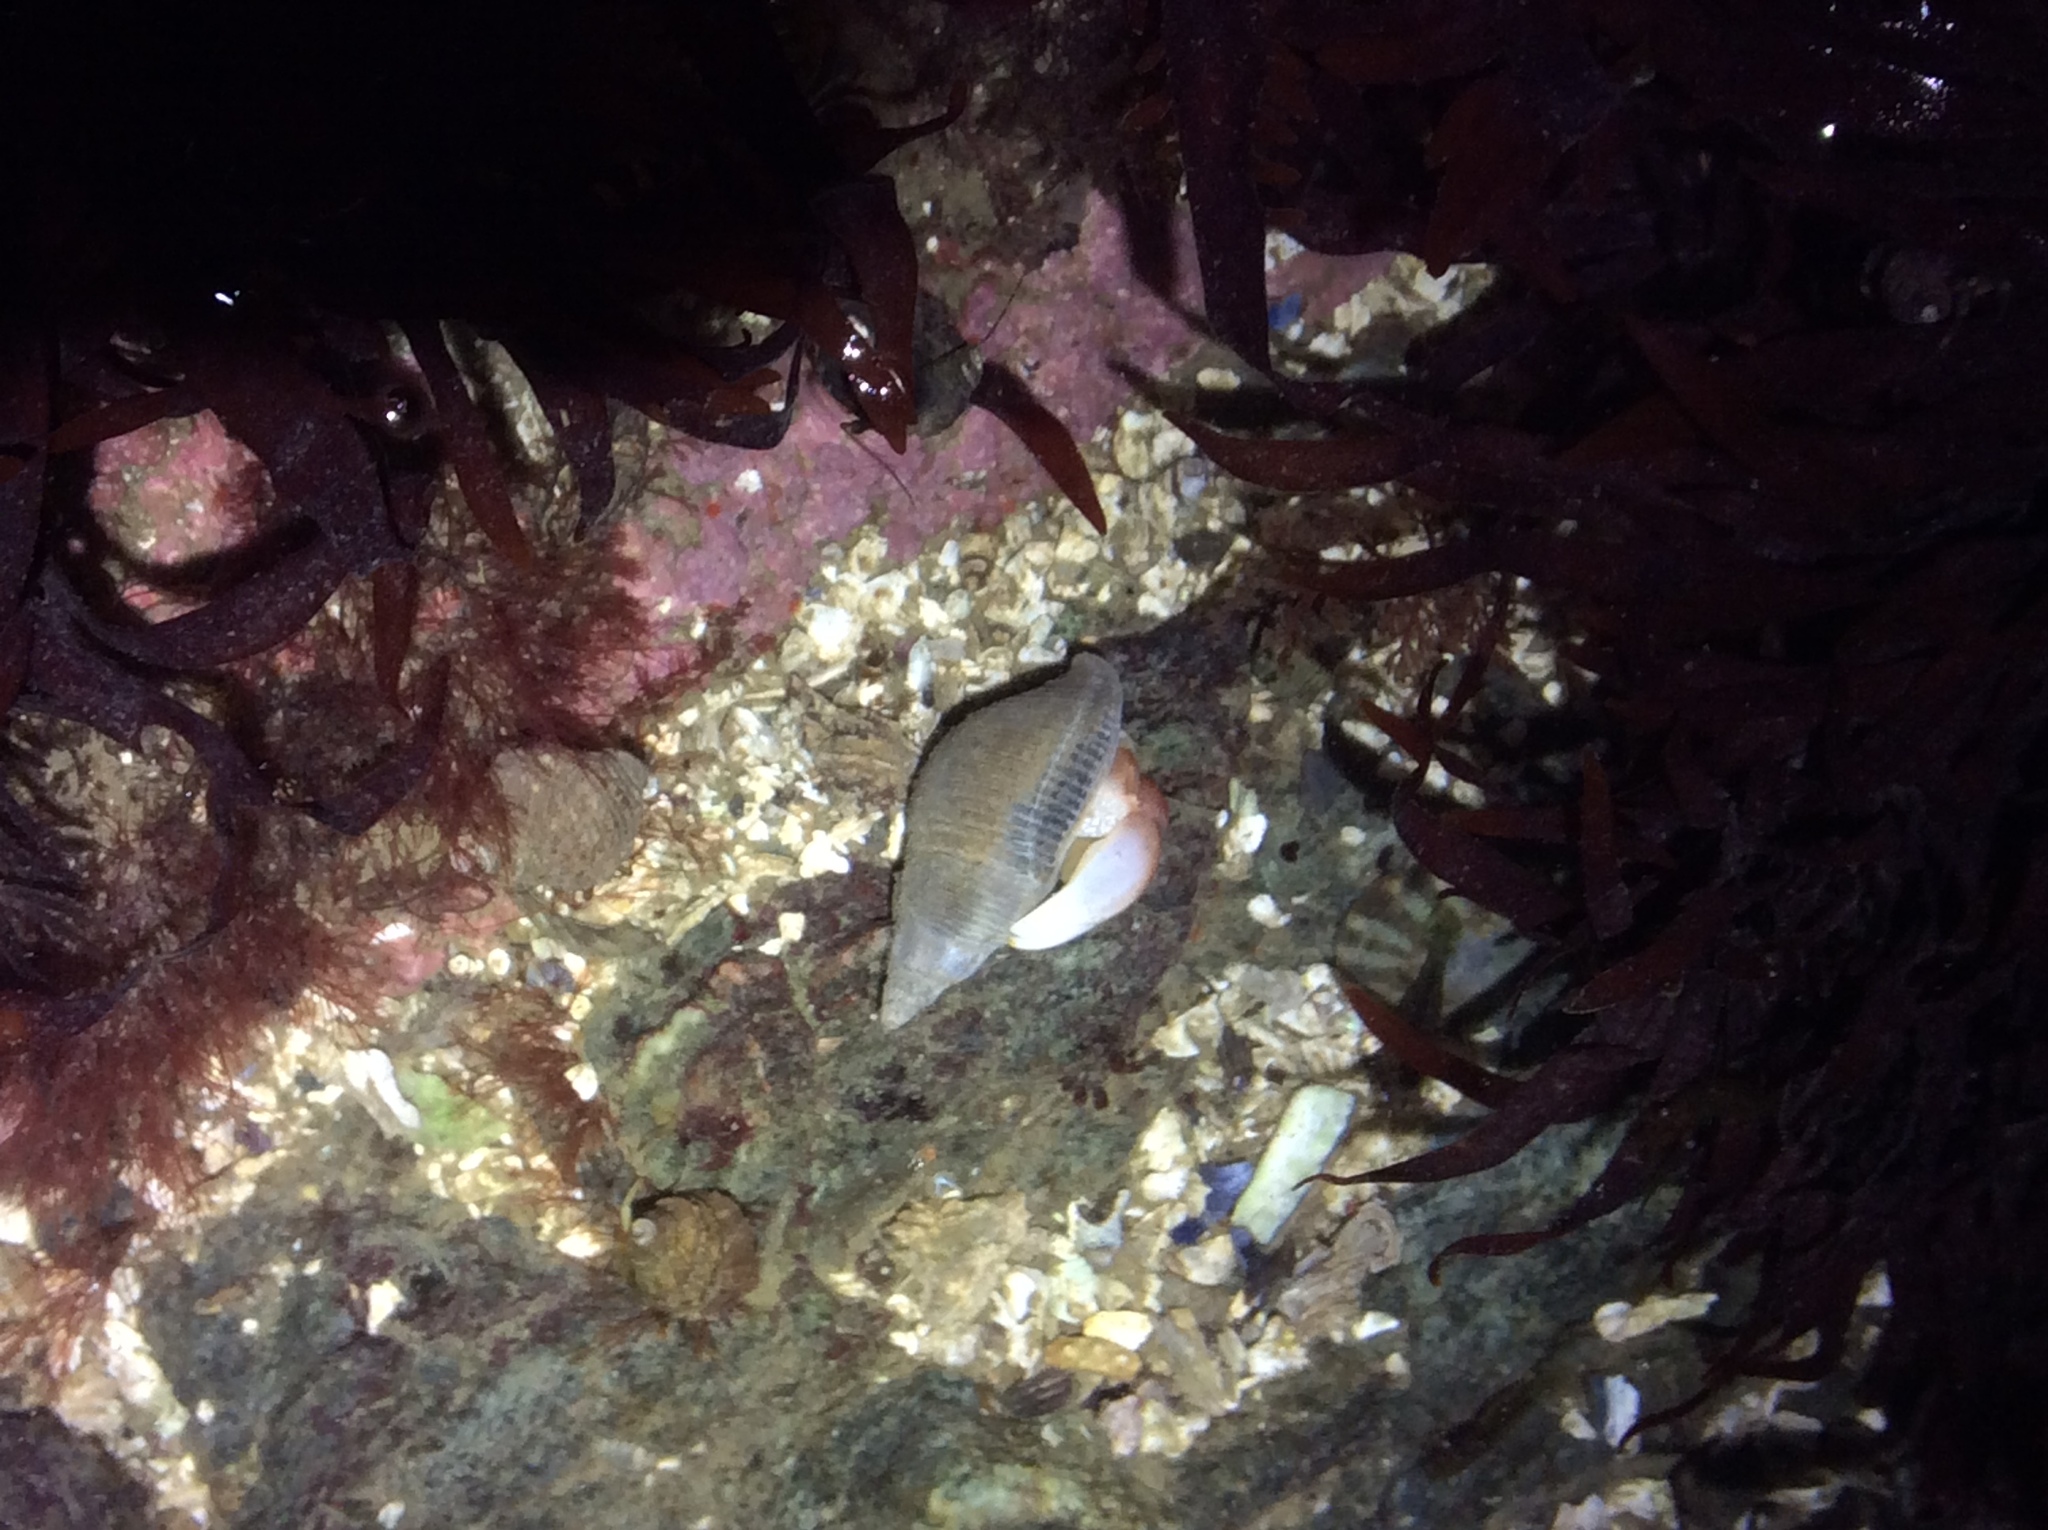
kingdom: Animalia
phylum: Mollusca
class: Gastropoda
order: Neogastropoda
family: Tudiclidae
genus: Lirabuccinum
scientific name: Lirabuccinum dirum
